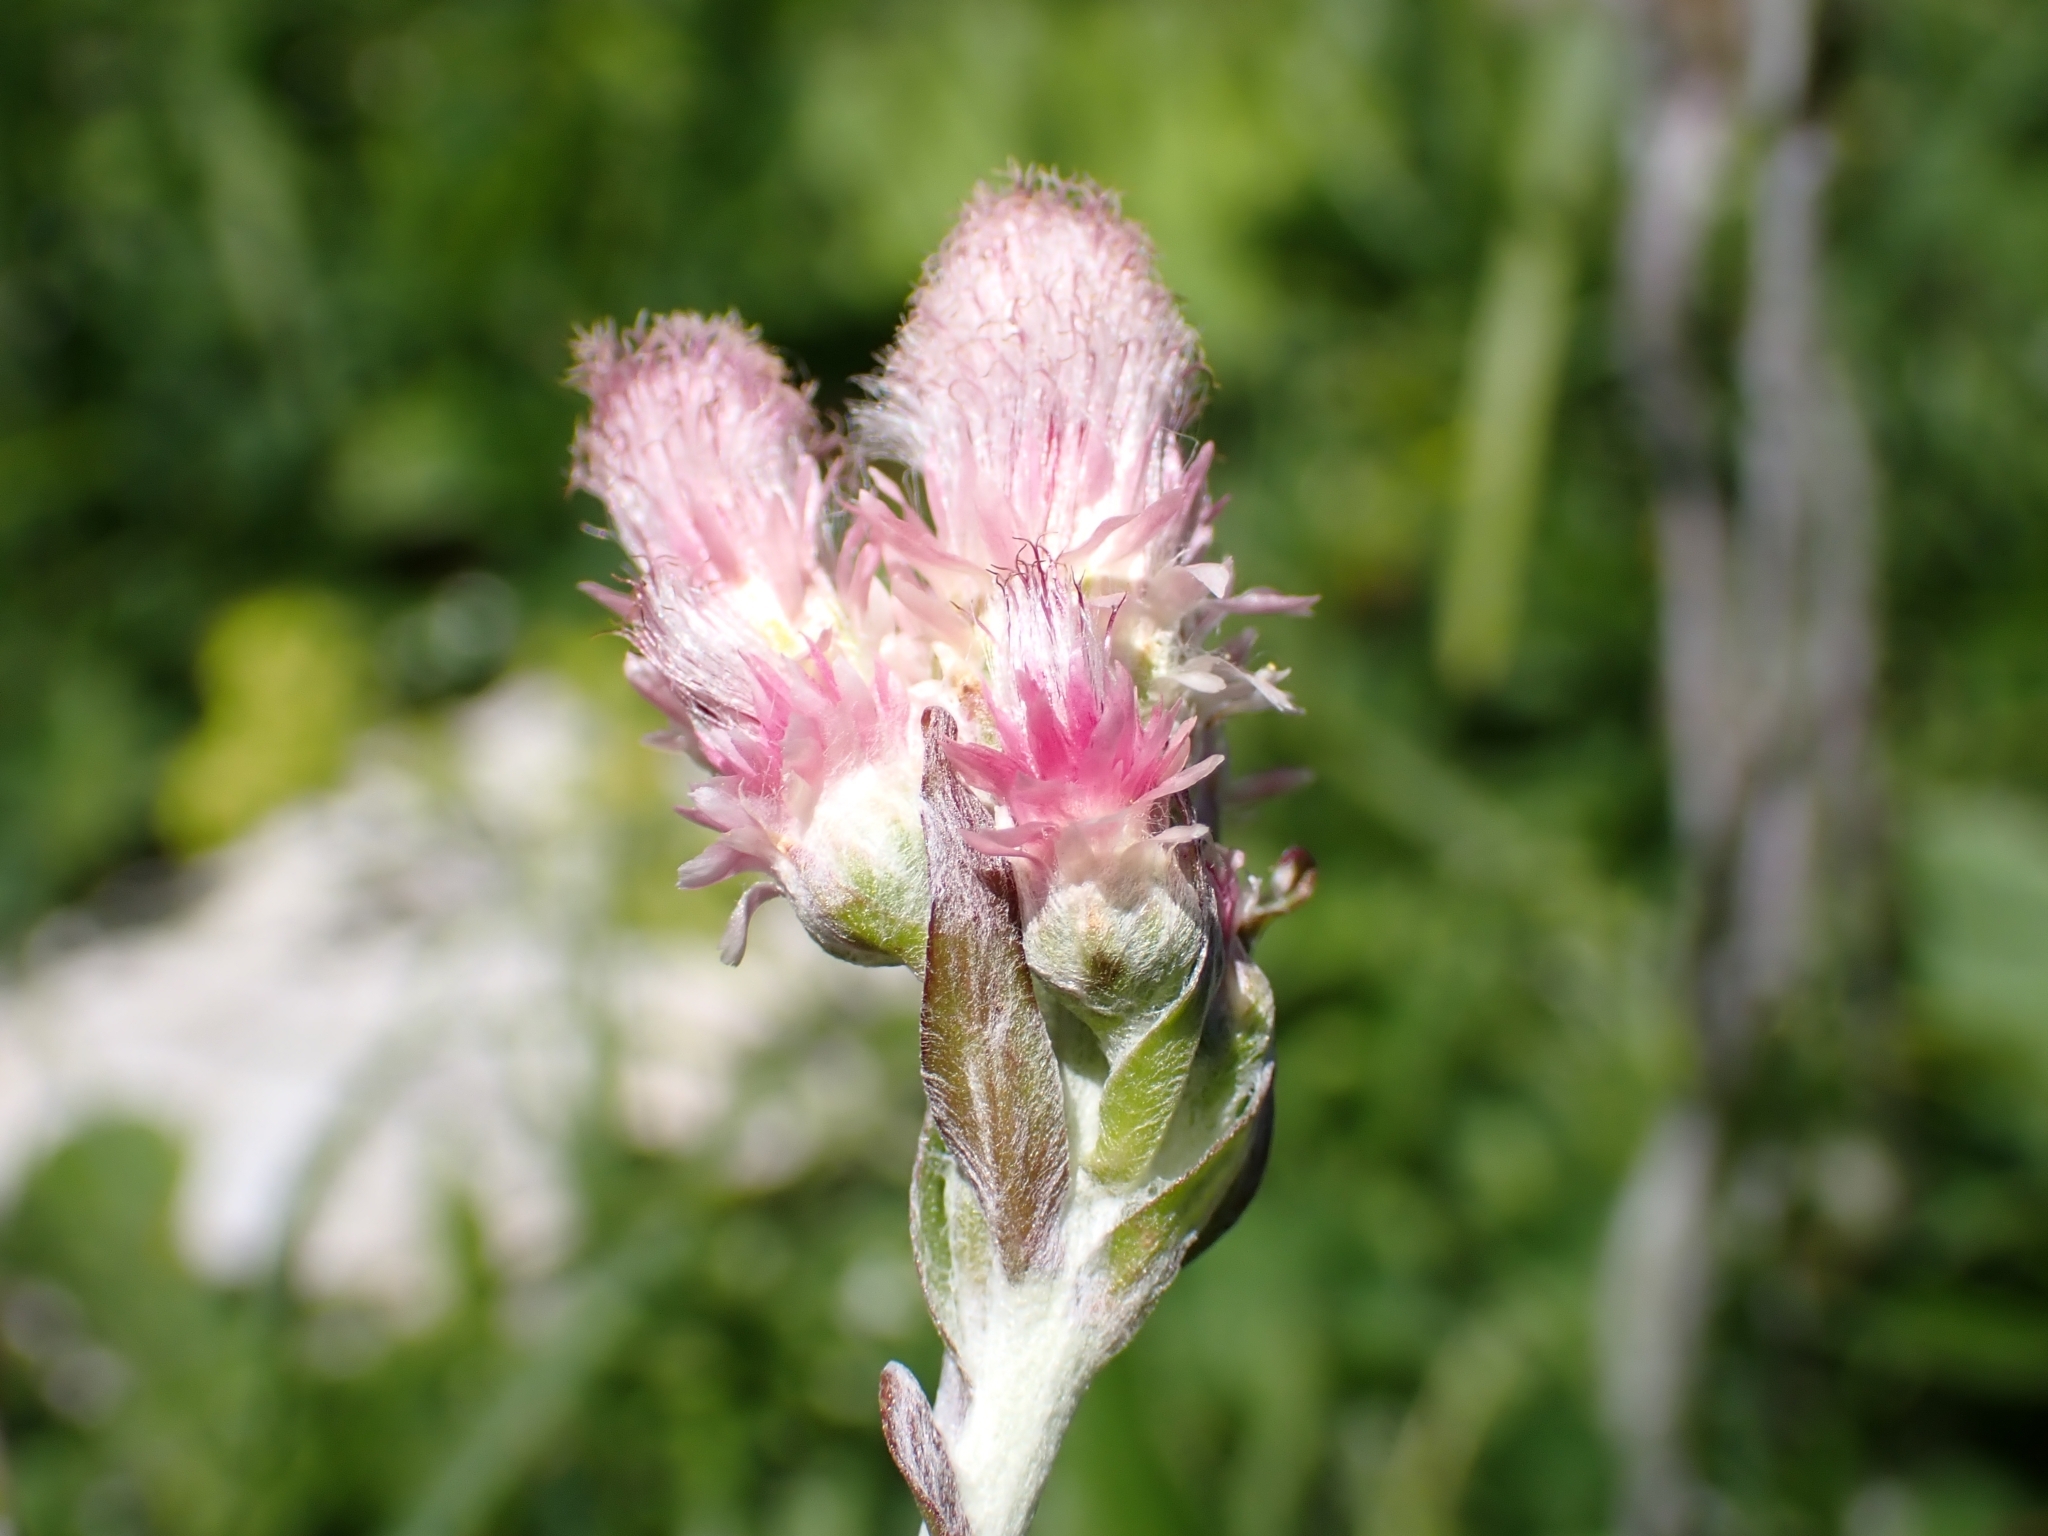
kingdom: Plantae
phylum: Tracheophyta
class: Magnoliopsida
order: Asterales
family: Asteraceae
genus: Antennaria
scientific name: Antennaria dioica
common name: Mountain everlasting
